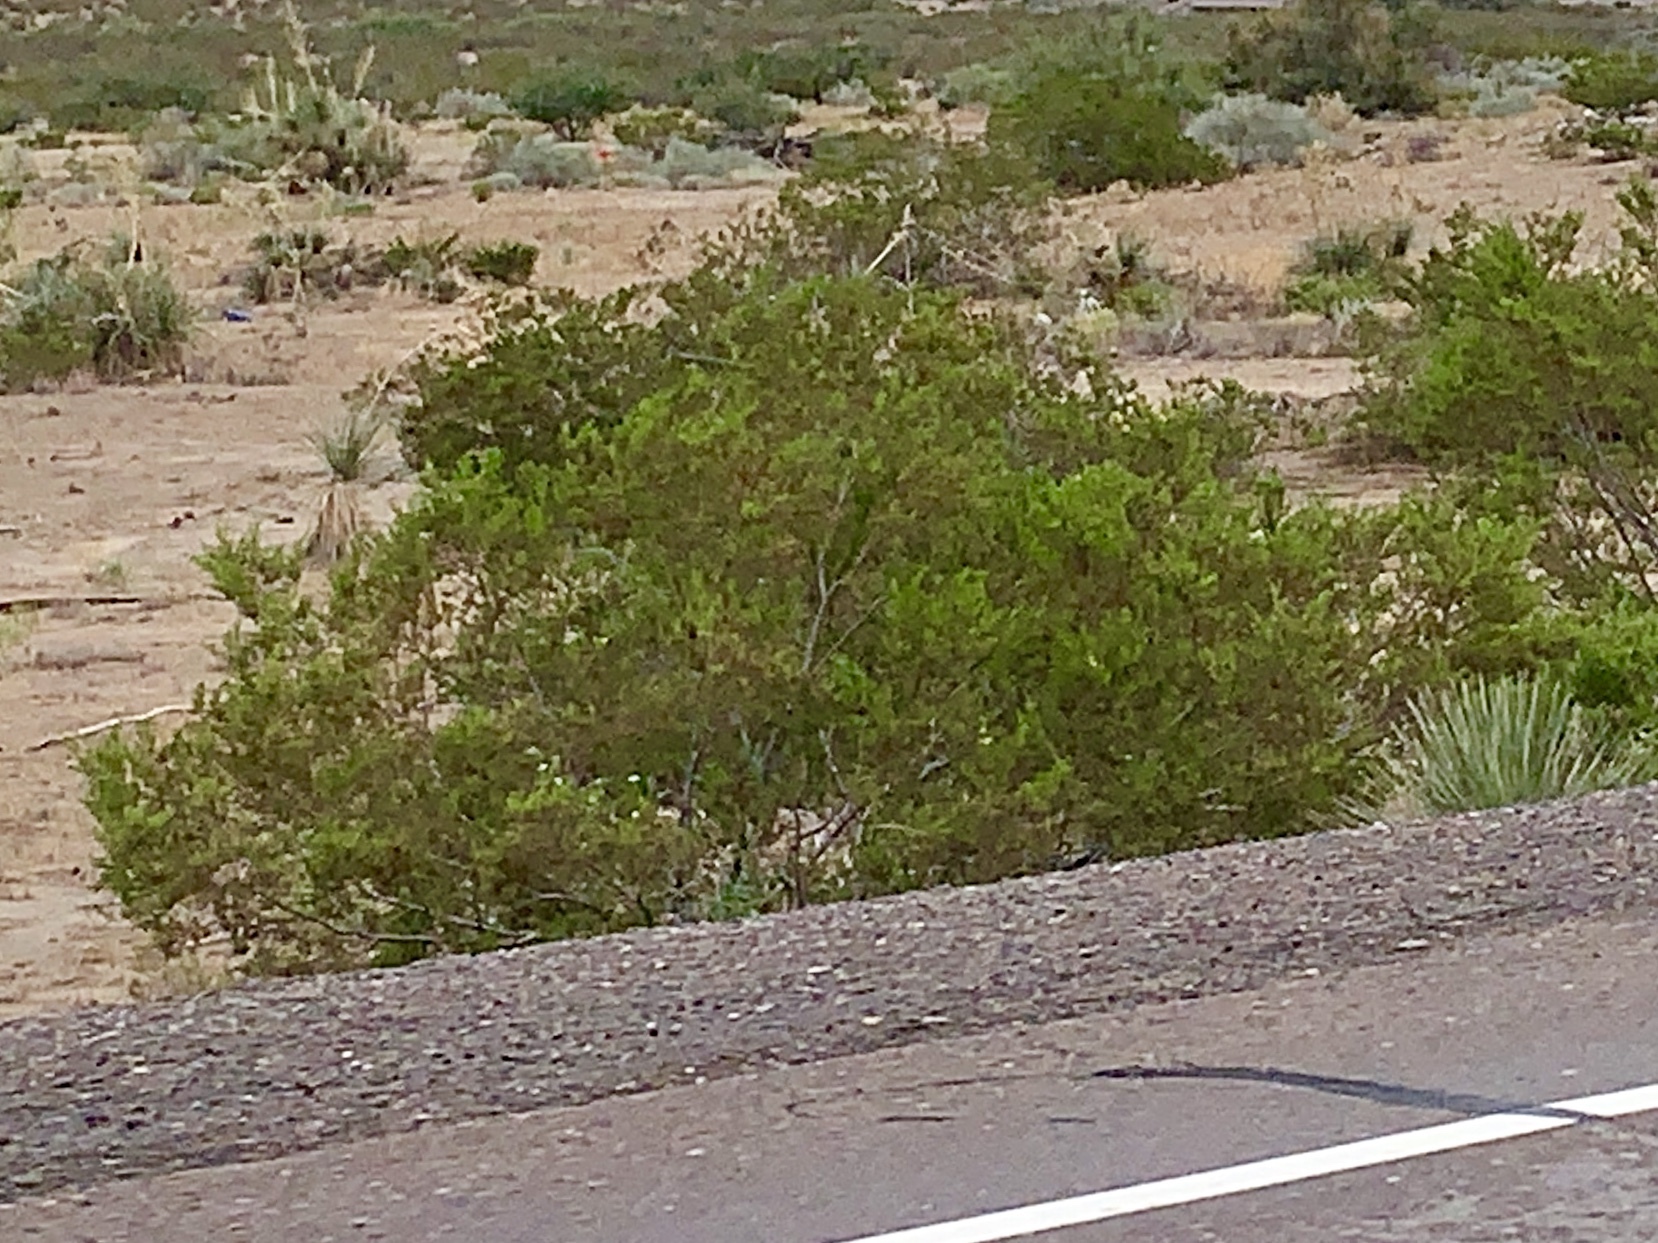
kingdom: Plantae
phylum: Tracheophyta
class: Magnoliopsida
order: Zygophyllales
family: Zygophyllaceae
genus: Larrea
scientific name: Larrea tridentata
